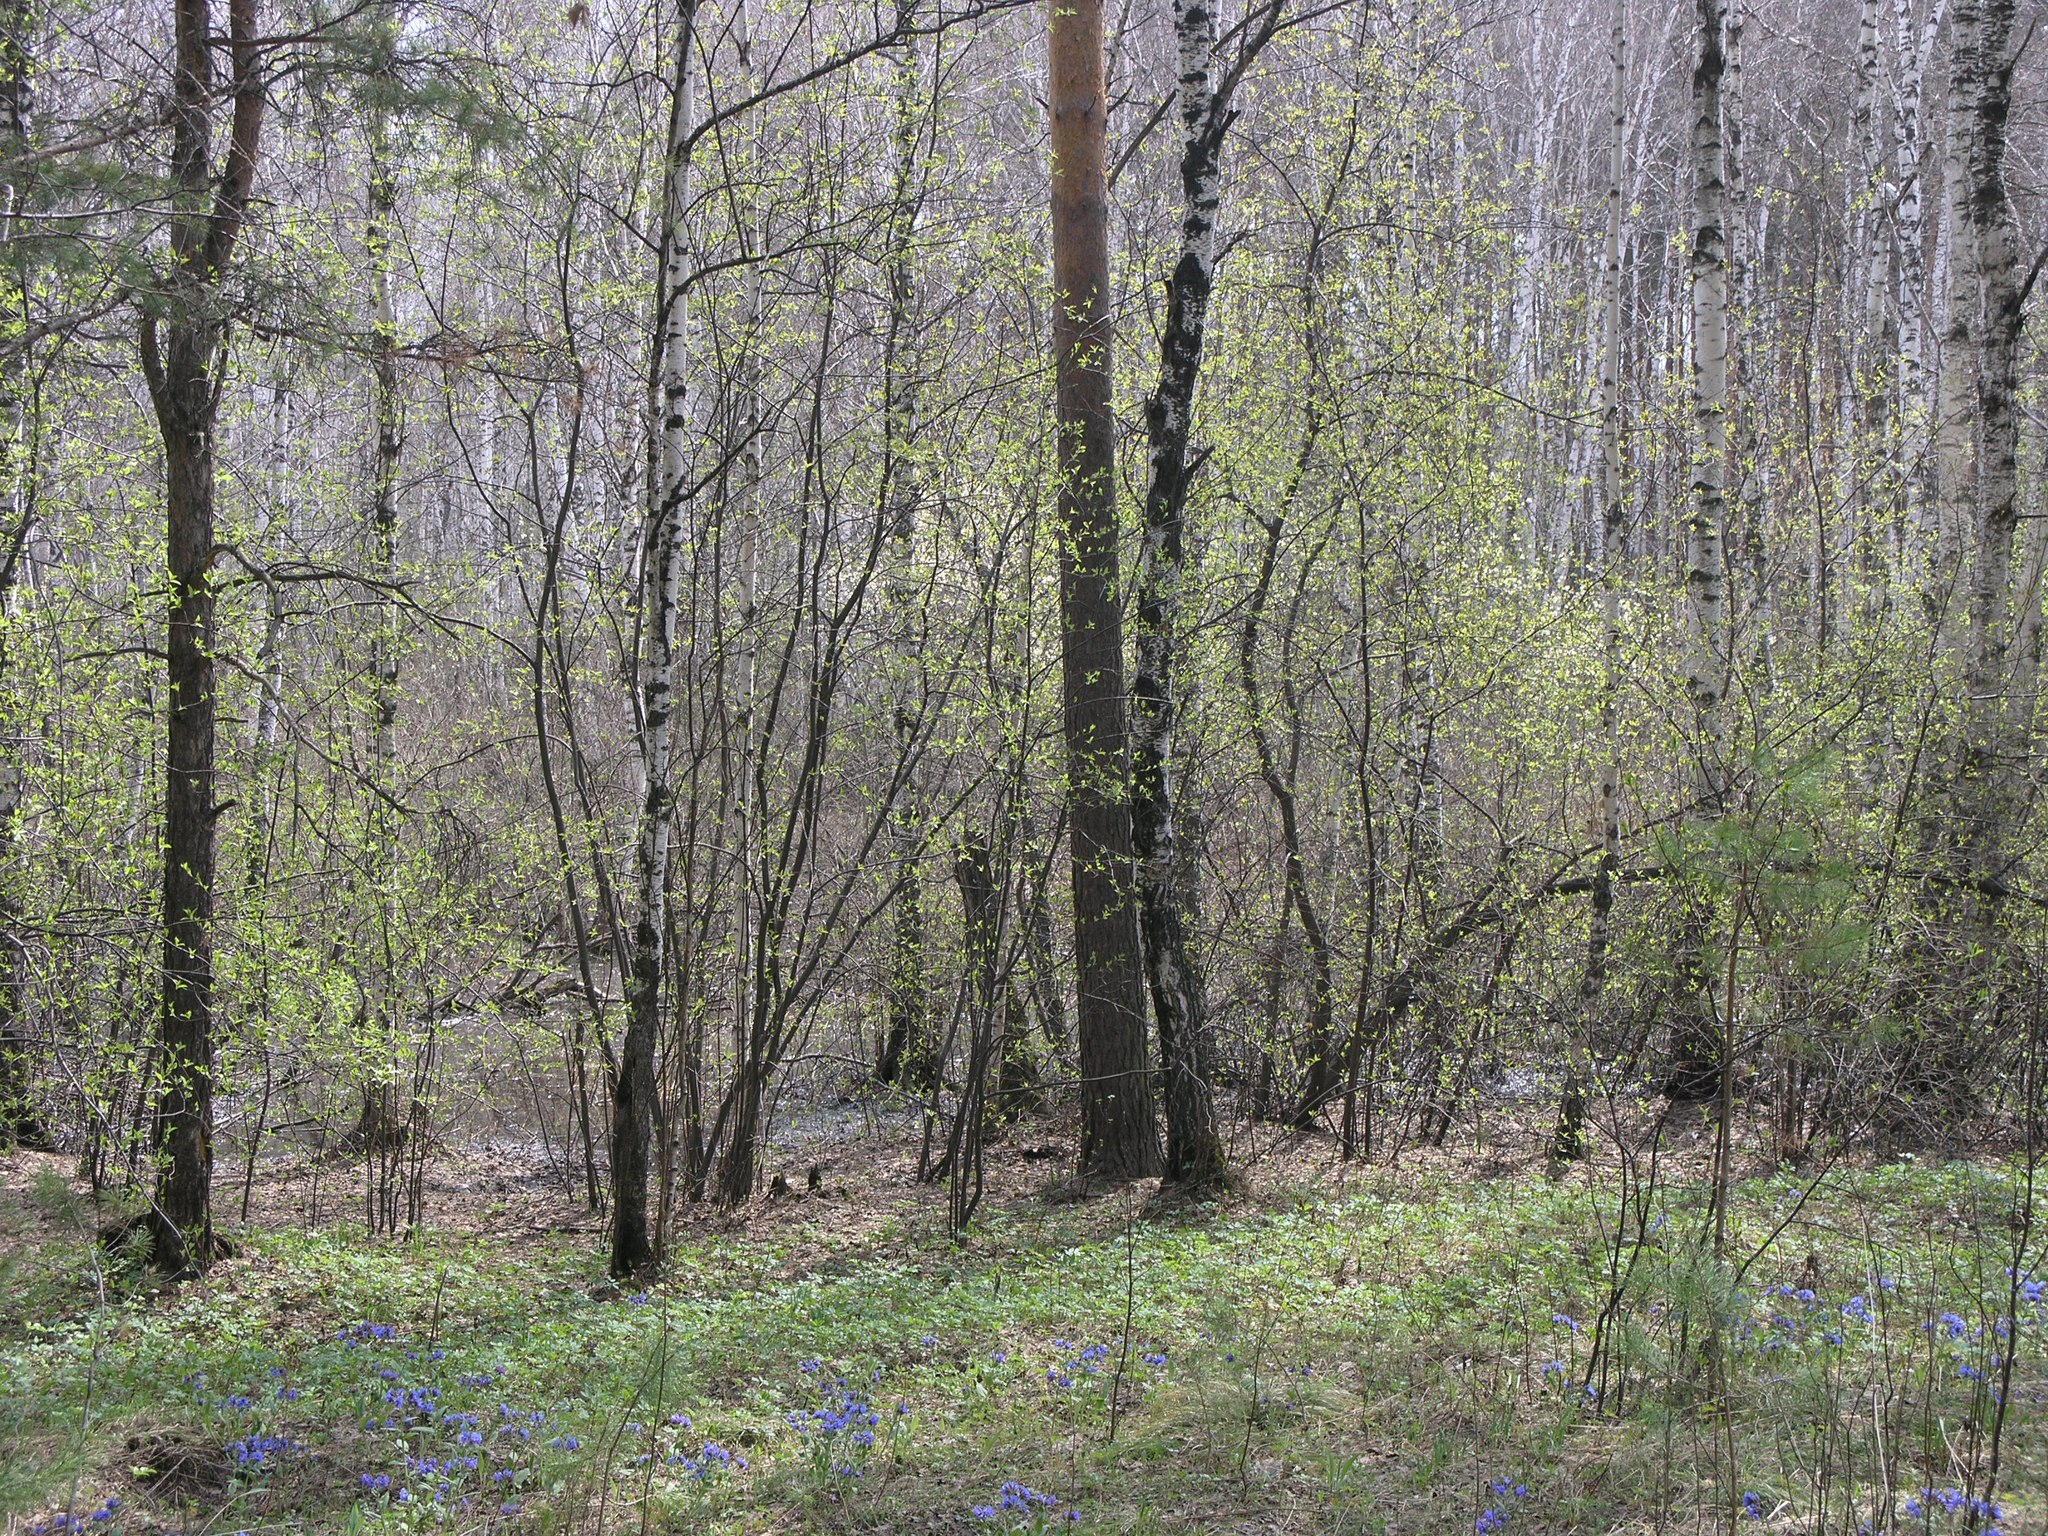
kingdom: Plantae
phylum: Tracheophyta
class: Magnoliopsida
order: Rosales
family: Rosaceae
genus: Prunus
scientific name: Prunus padus
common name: Bird cherry
